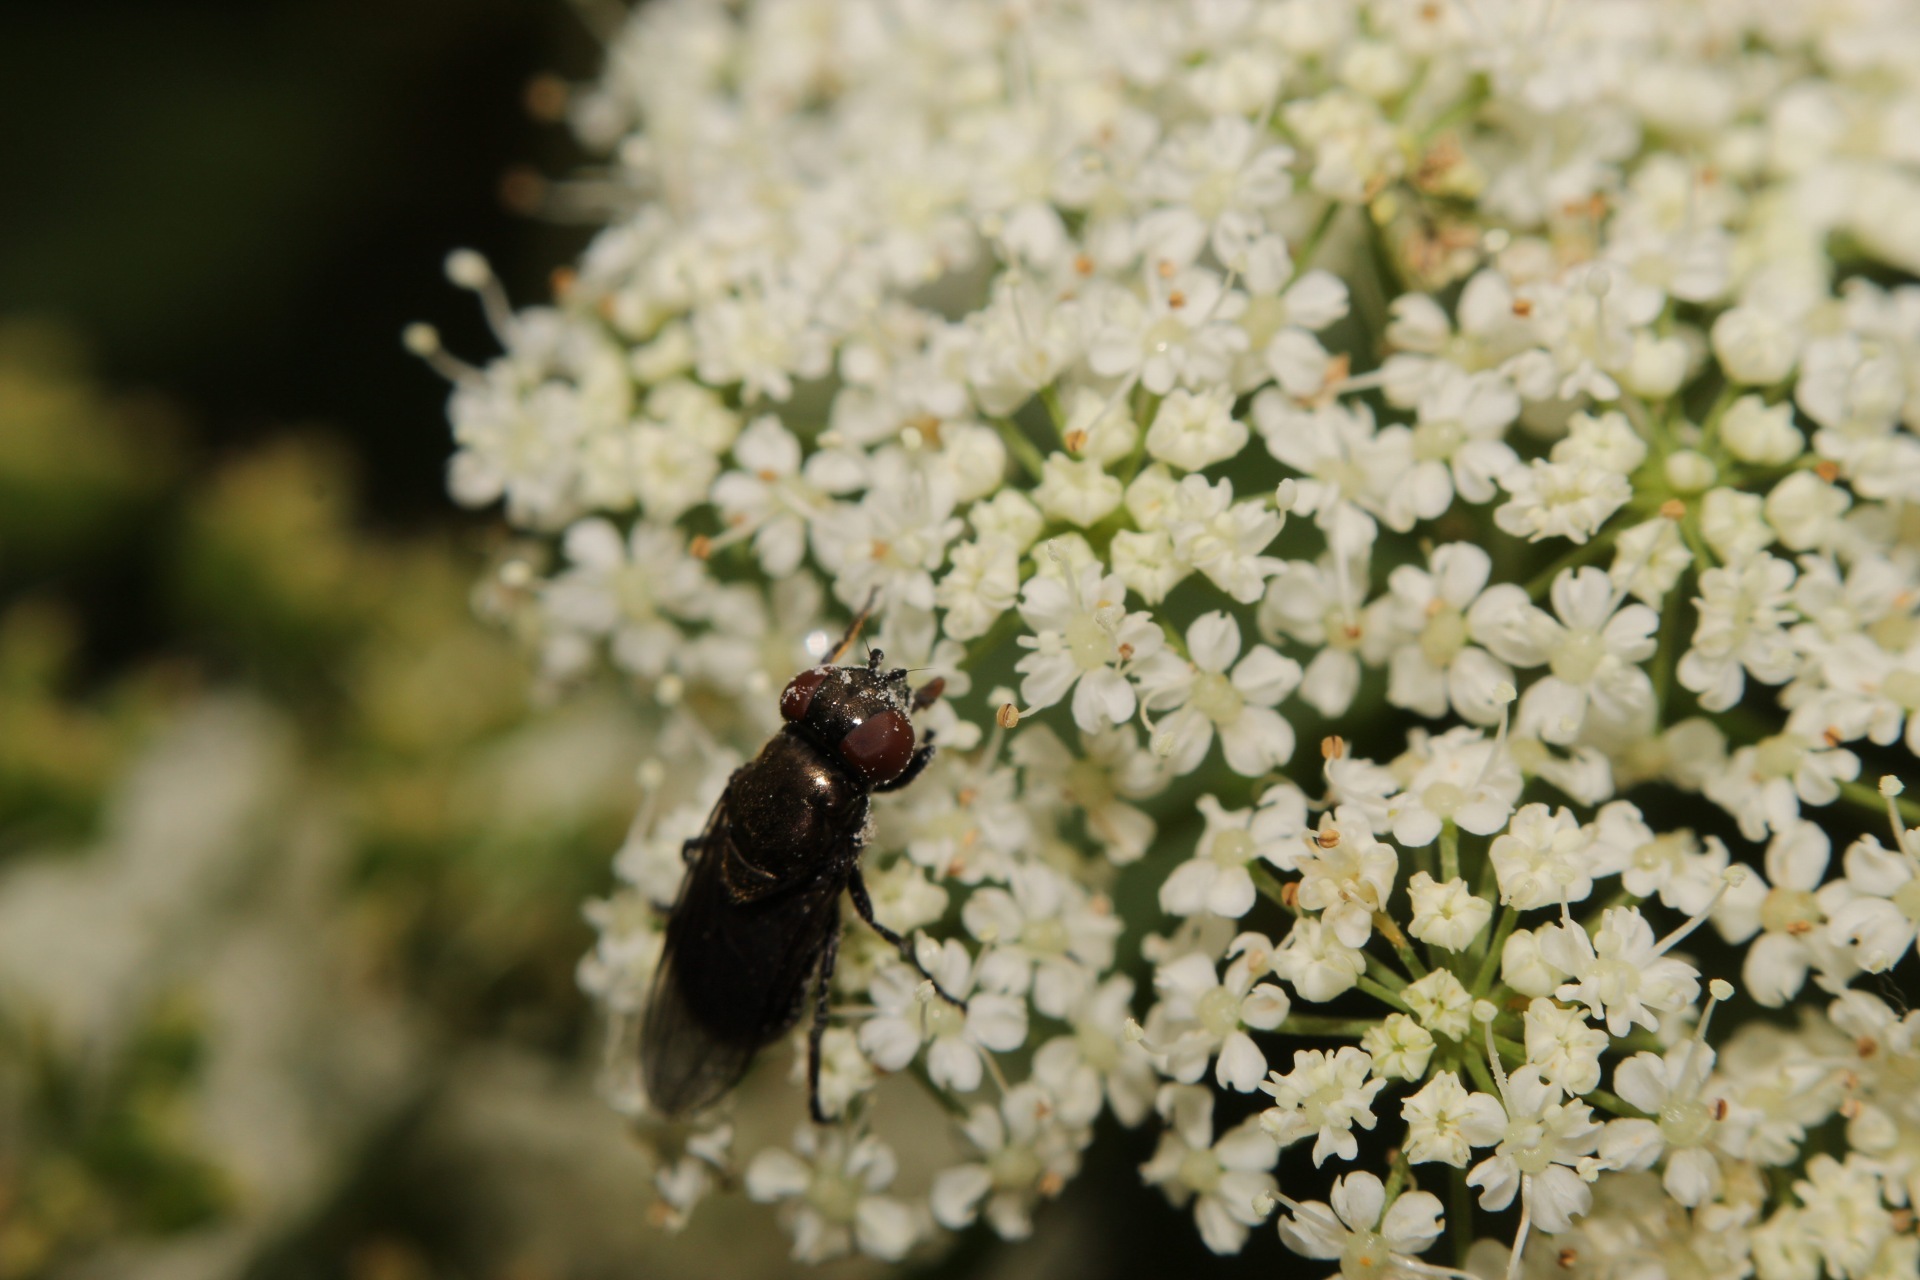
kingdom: Animalia
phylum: Arthropoda
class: Insecta
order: Diptera
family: Syrphidae
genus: Chrysogaster
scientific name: Chrysogaster solstitialis
